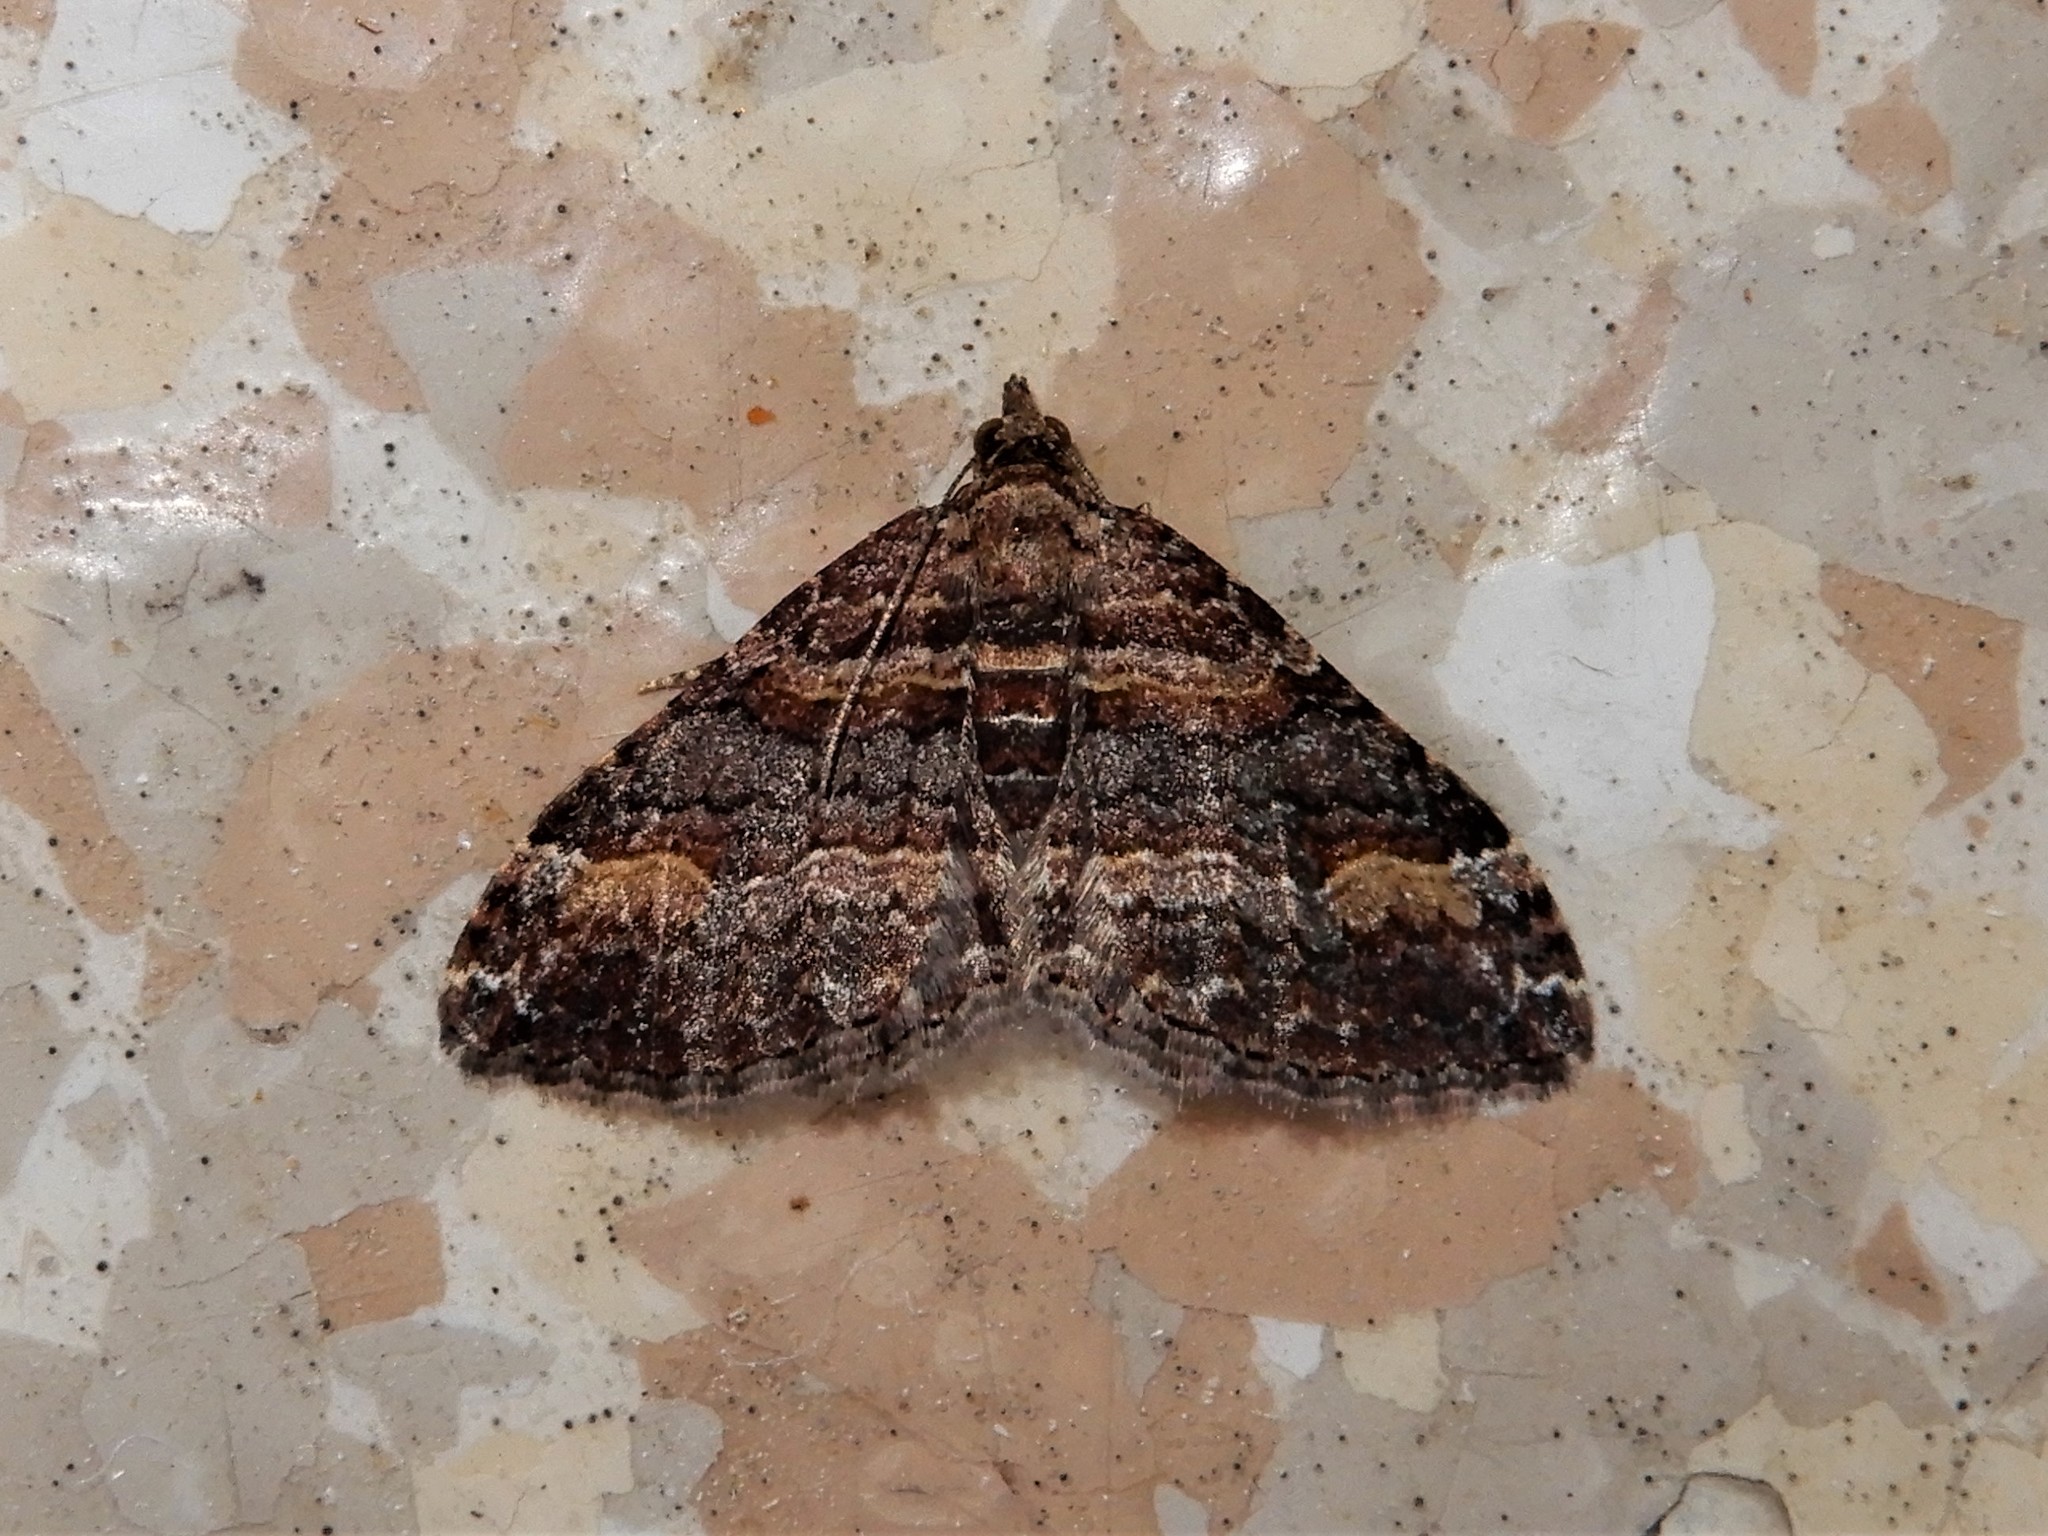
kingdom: Animalia
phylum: Arthropoda
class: Insecta
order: Lepidoptera
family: Geometridae
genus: Epyaxa
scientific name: Epyaxa lucidata
